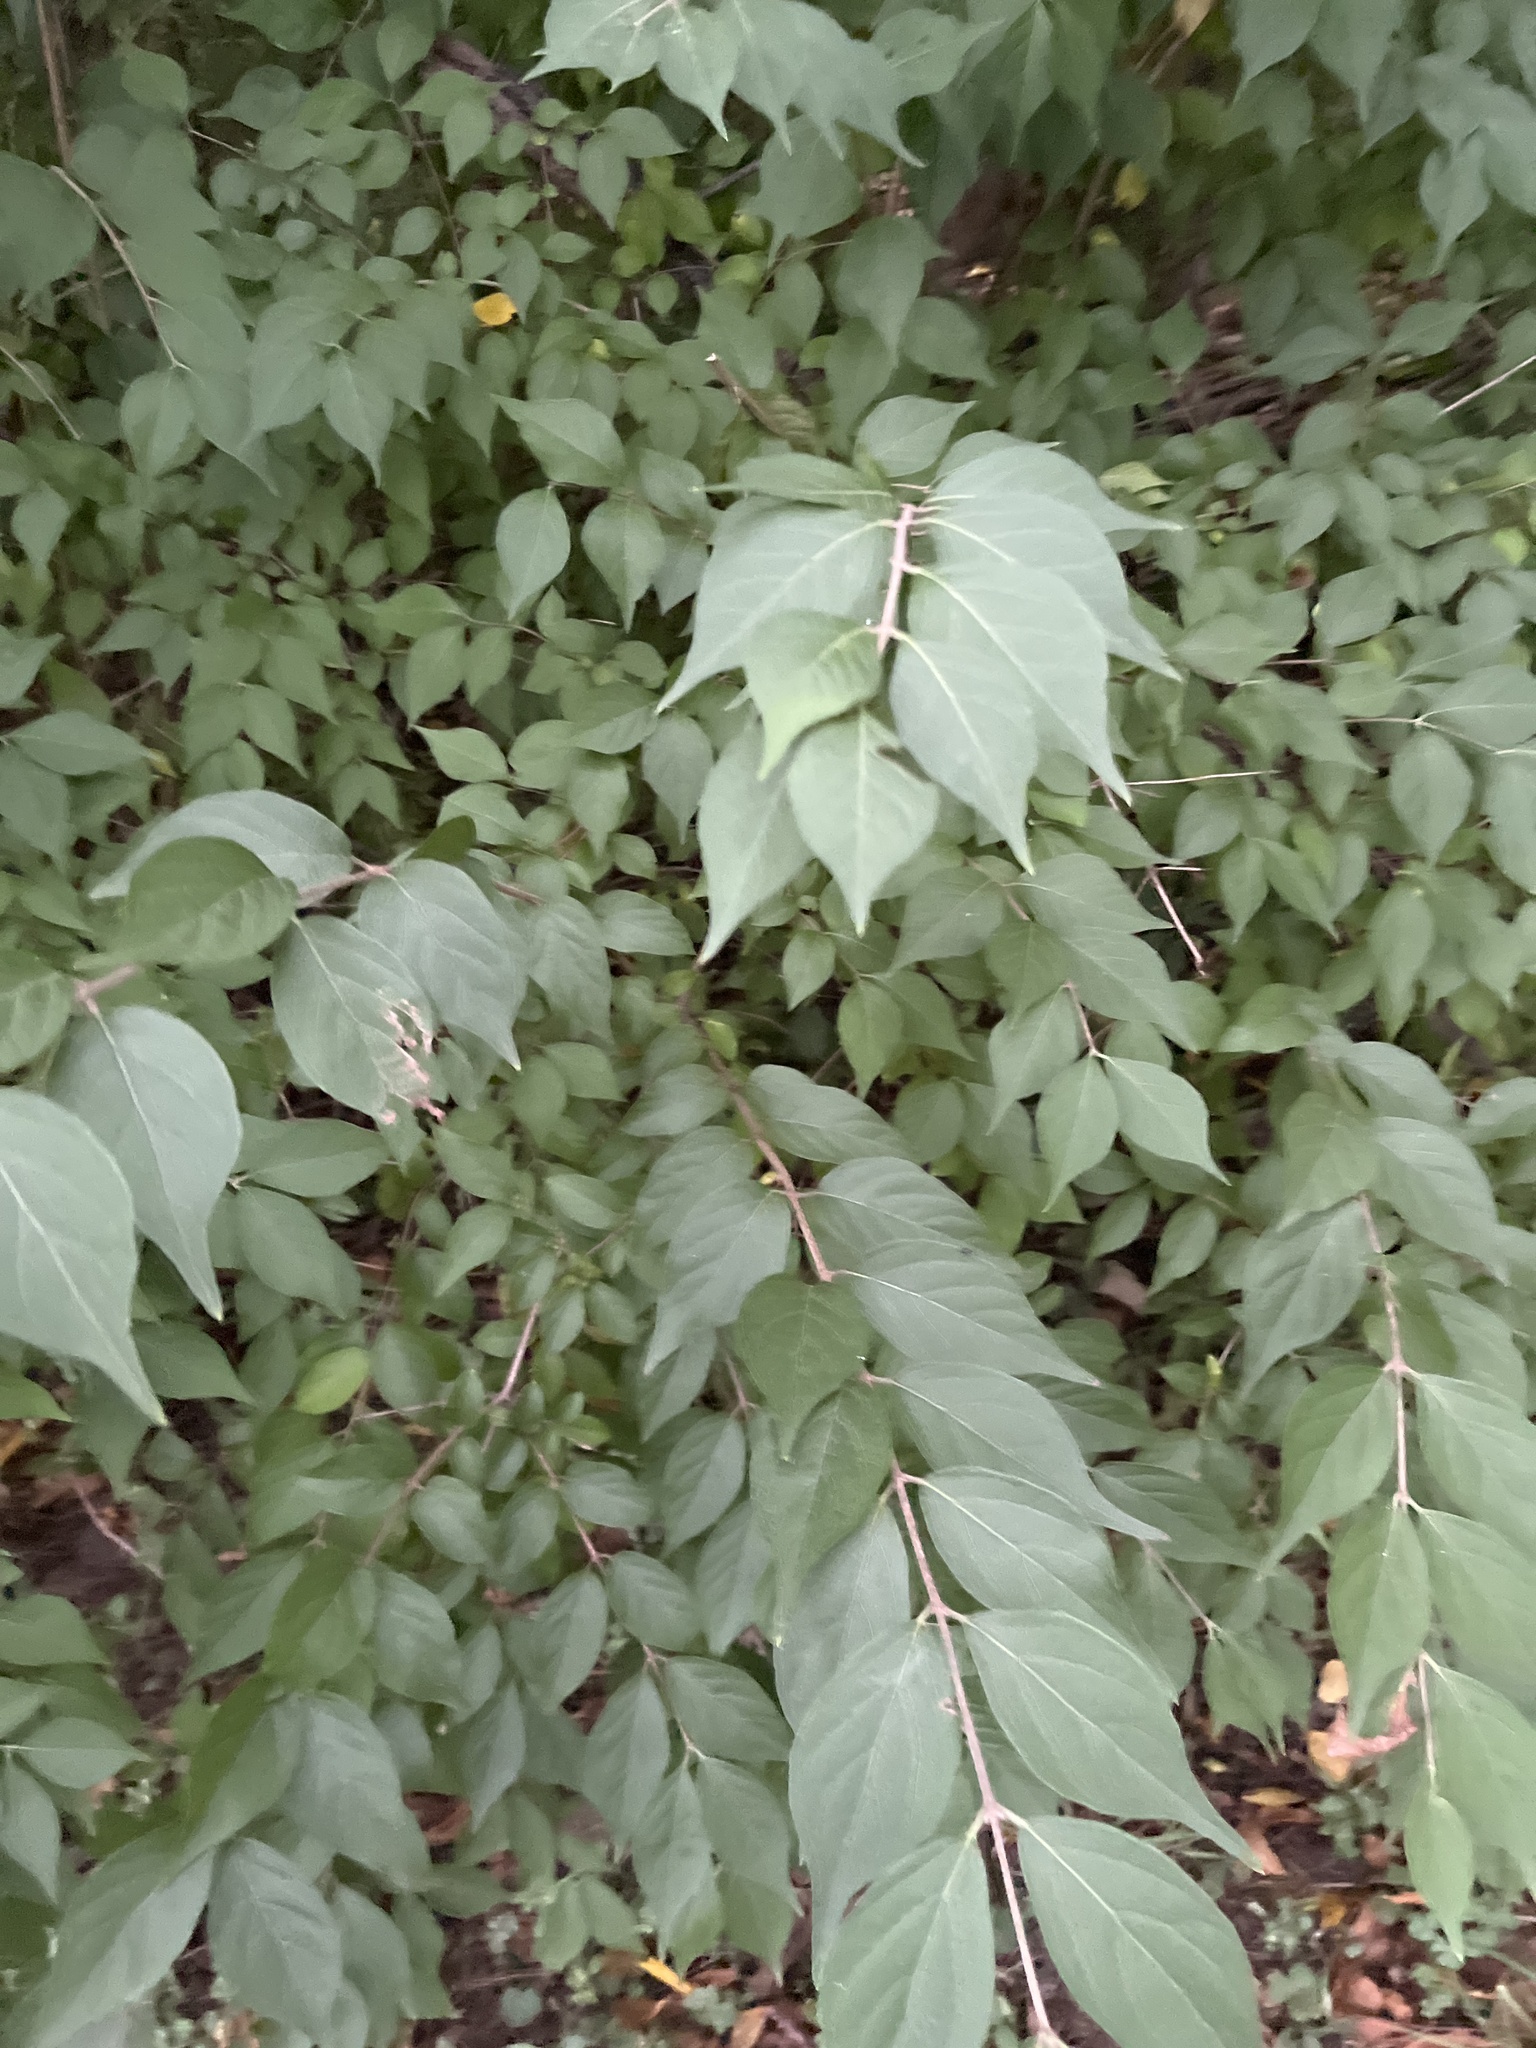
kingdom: Plantae
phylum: Tracheophyta
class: Magnoliopsida
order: Dipsacales
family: Caprifoliaceae
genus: Lonicera
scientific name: Lonicera maackii
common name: Amur honeysuckle
